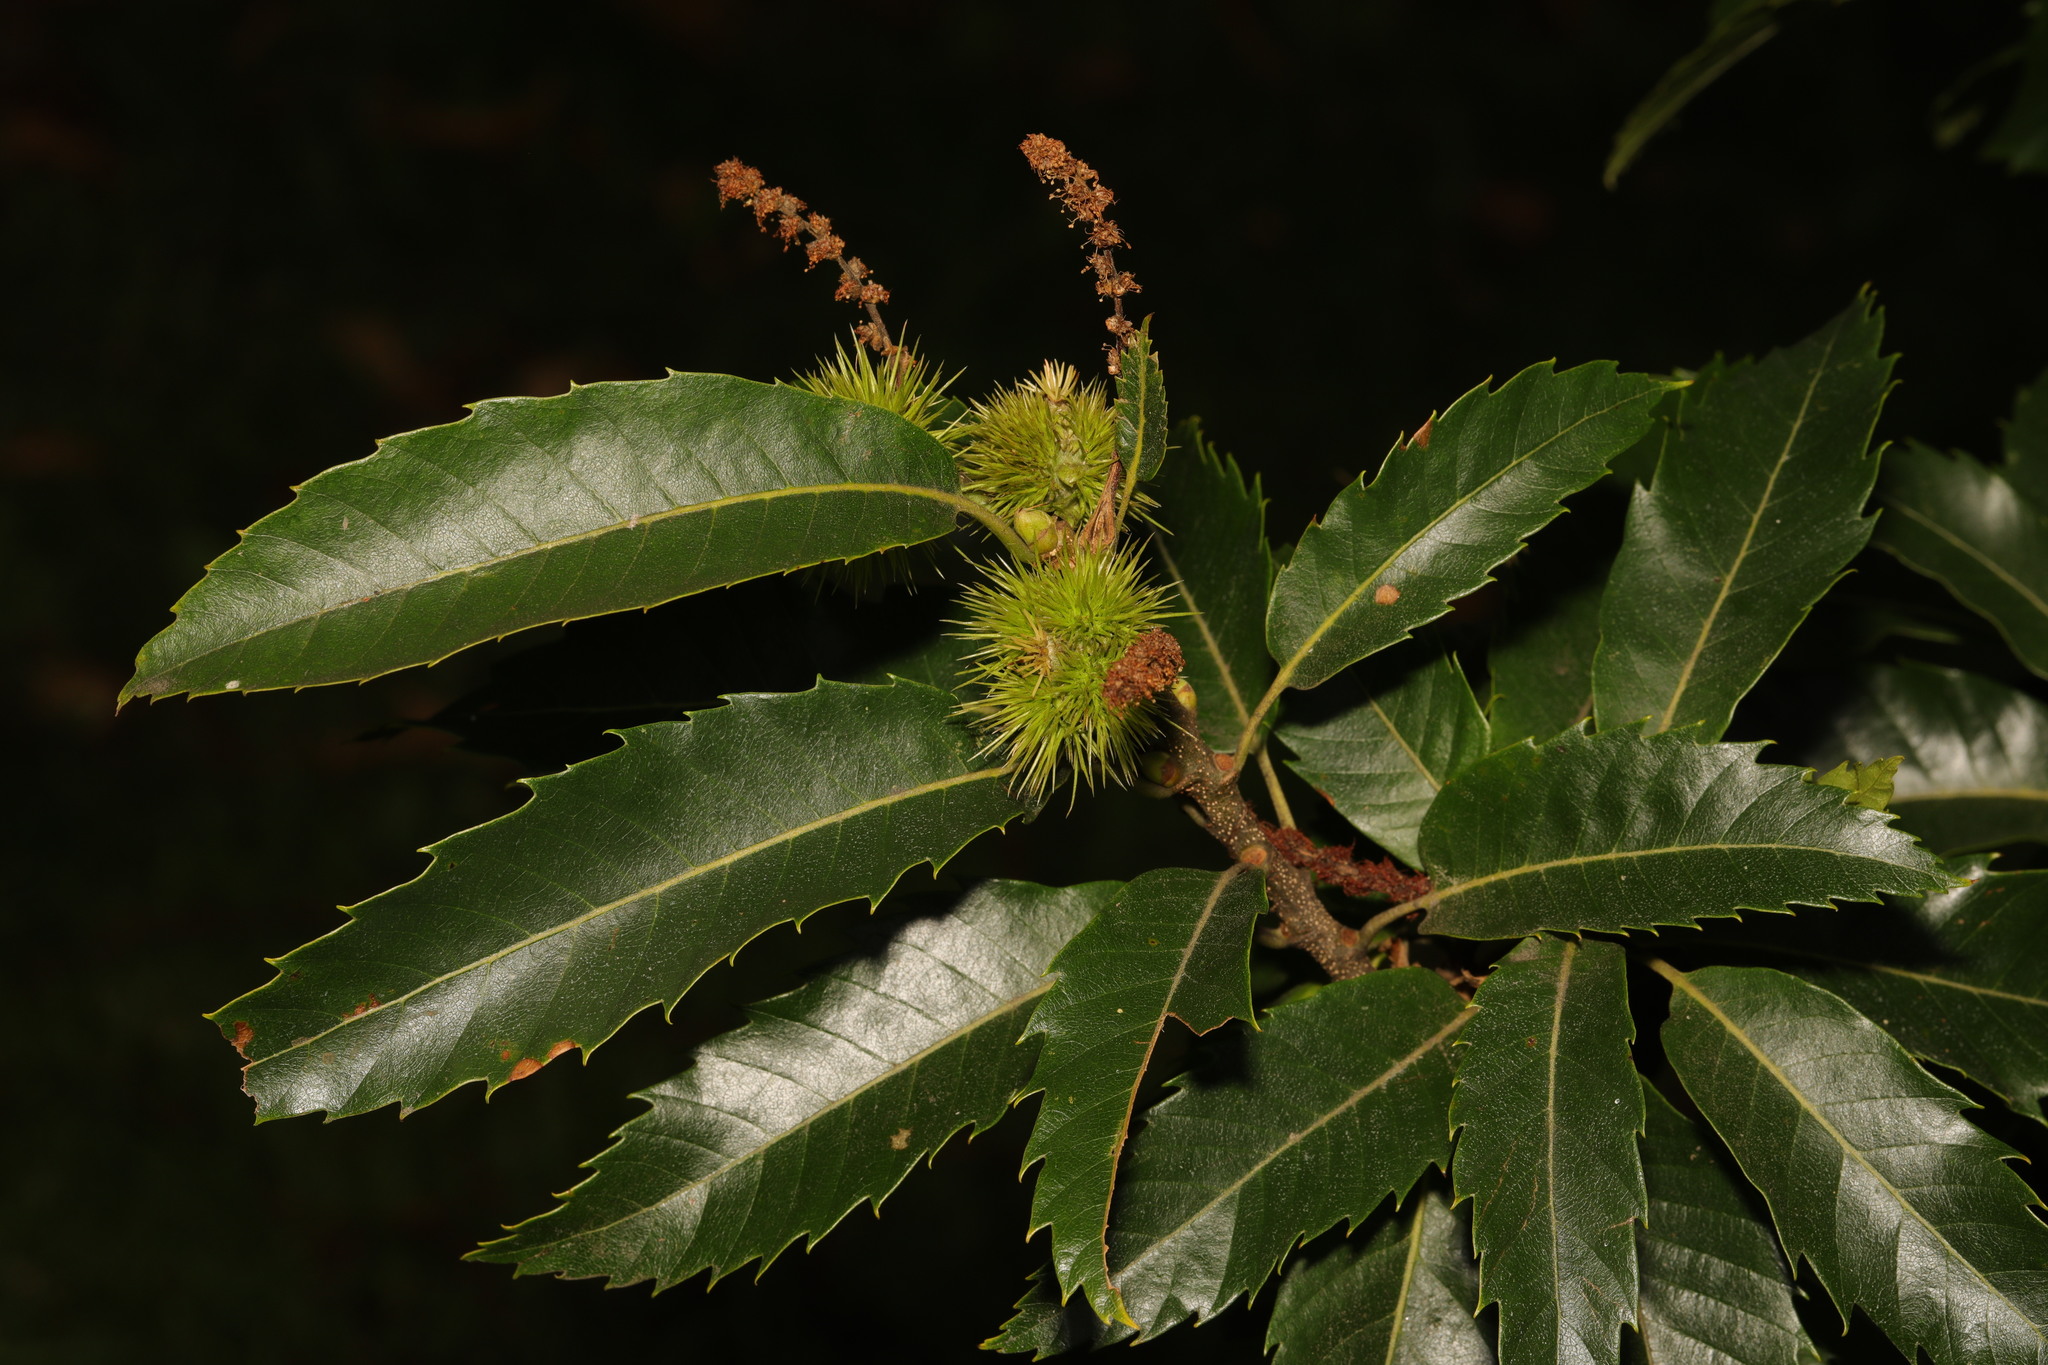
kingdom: Plantae
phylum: Tracheophyta
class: Magnoliopsida
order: Fagales
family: Fagaceae
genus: Castanea
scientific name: Castanea sativa
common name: Sweet chestnut
